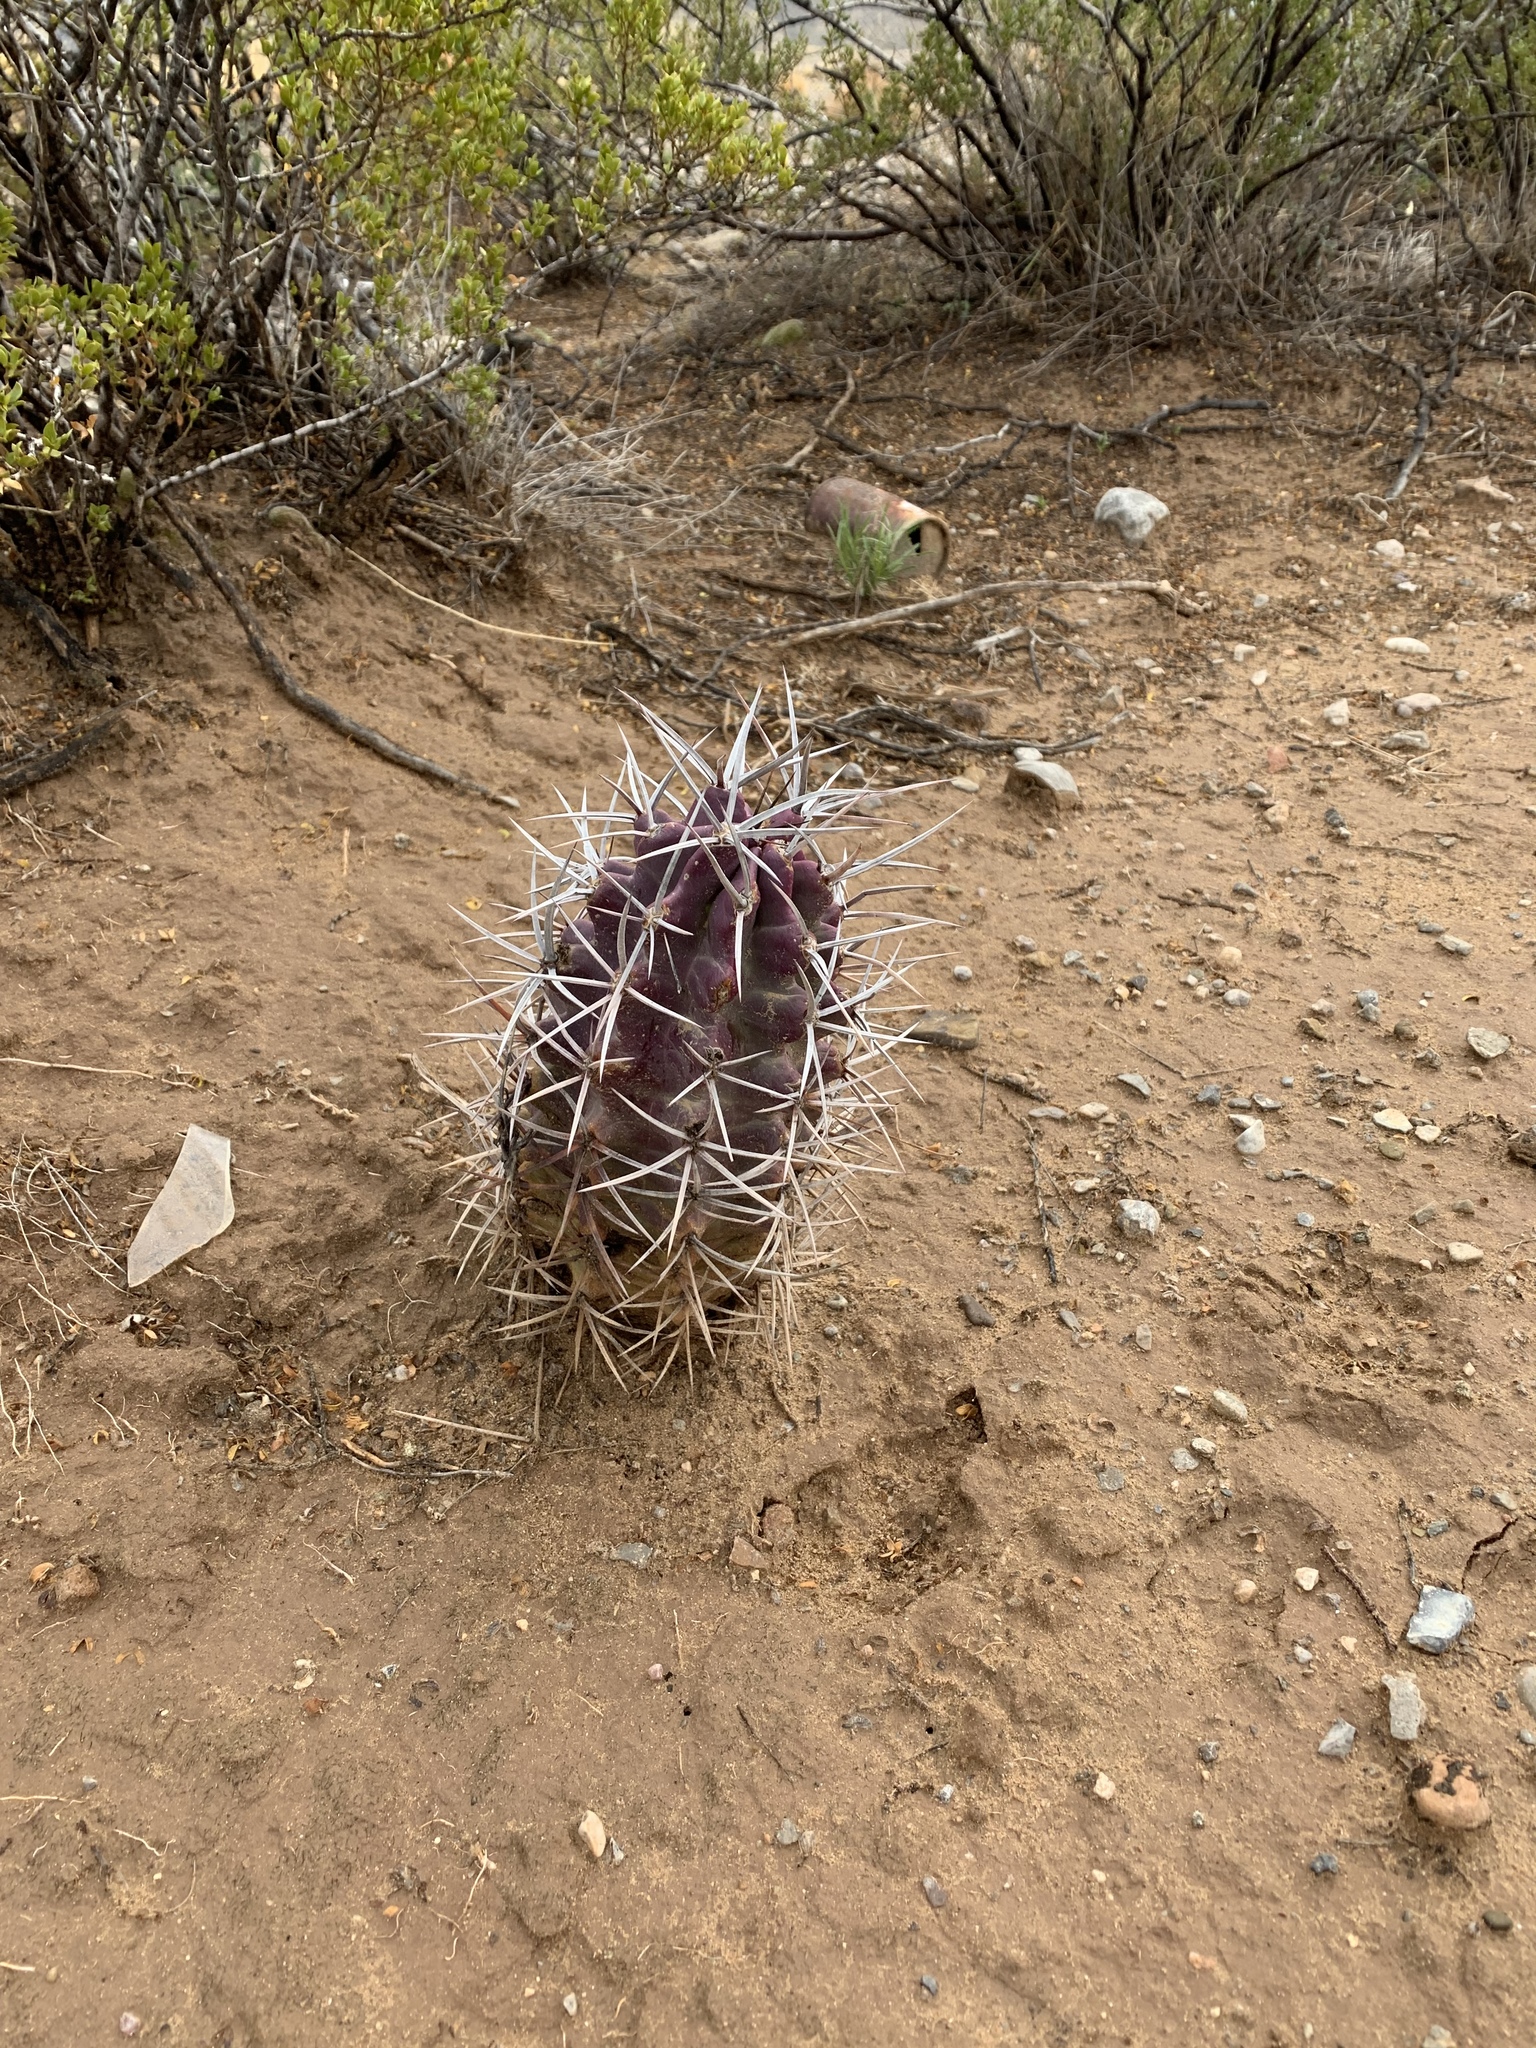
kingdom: Plantae
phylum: Tracheophyta
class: Magnoliopsida
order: Caryophyllales
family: Cactaceae
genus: Echinocereus
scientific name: Echinocereus triglochidiatus
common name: Claretcup hedgehog
